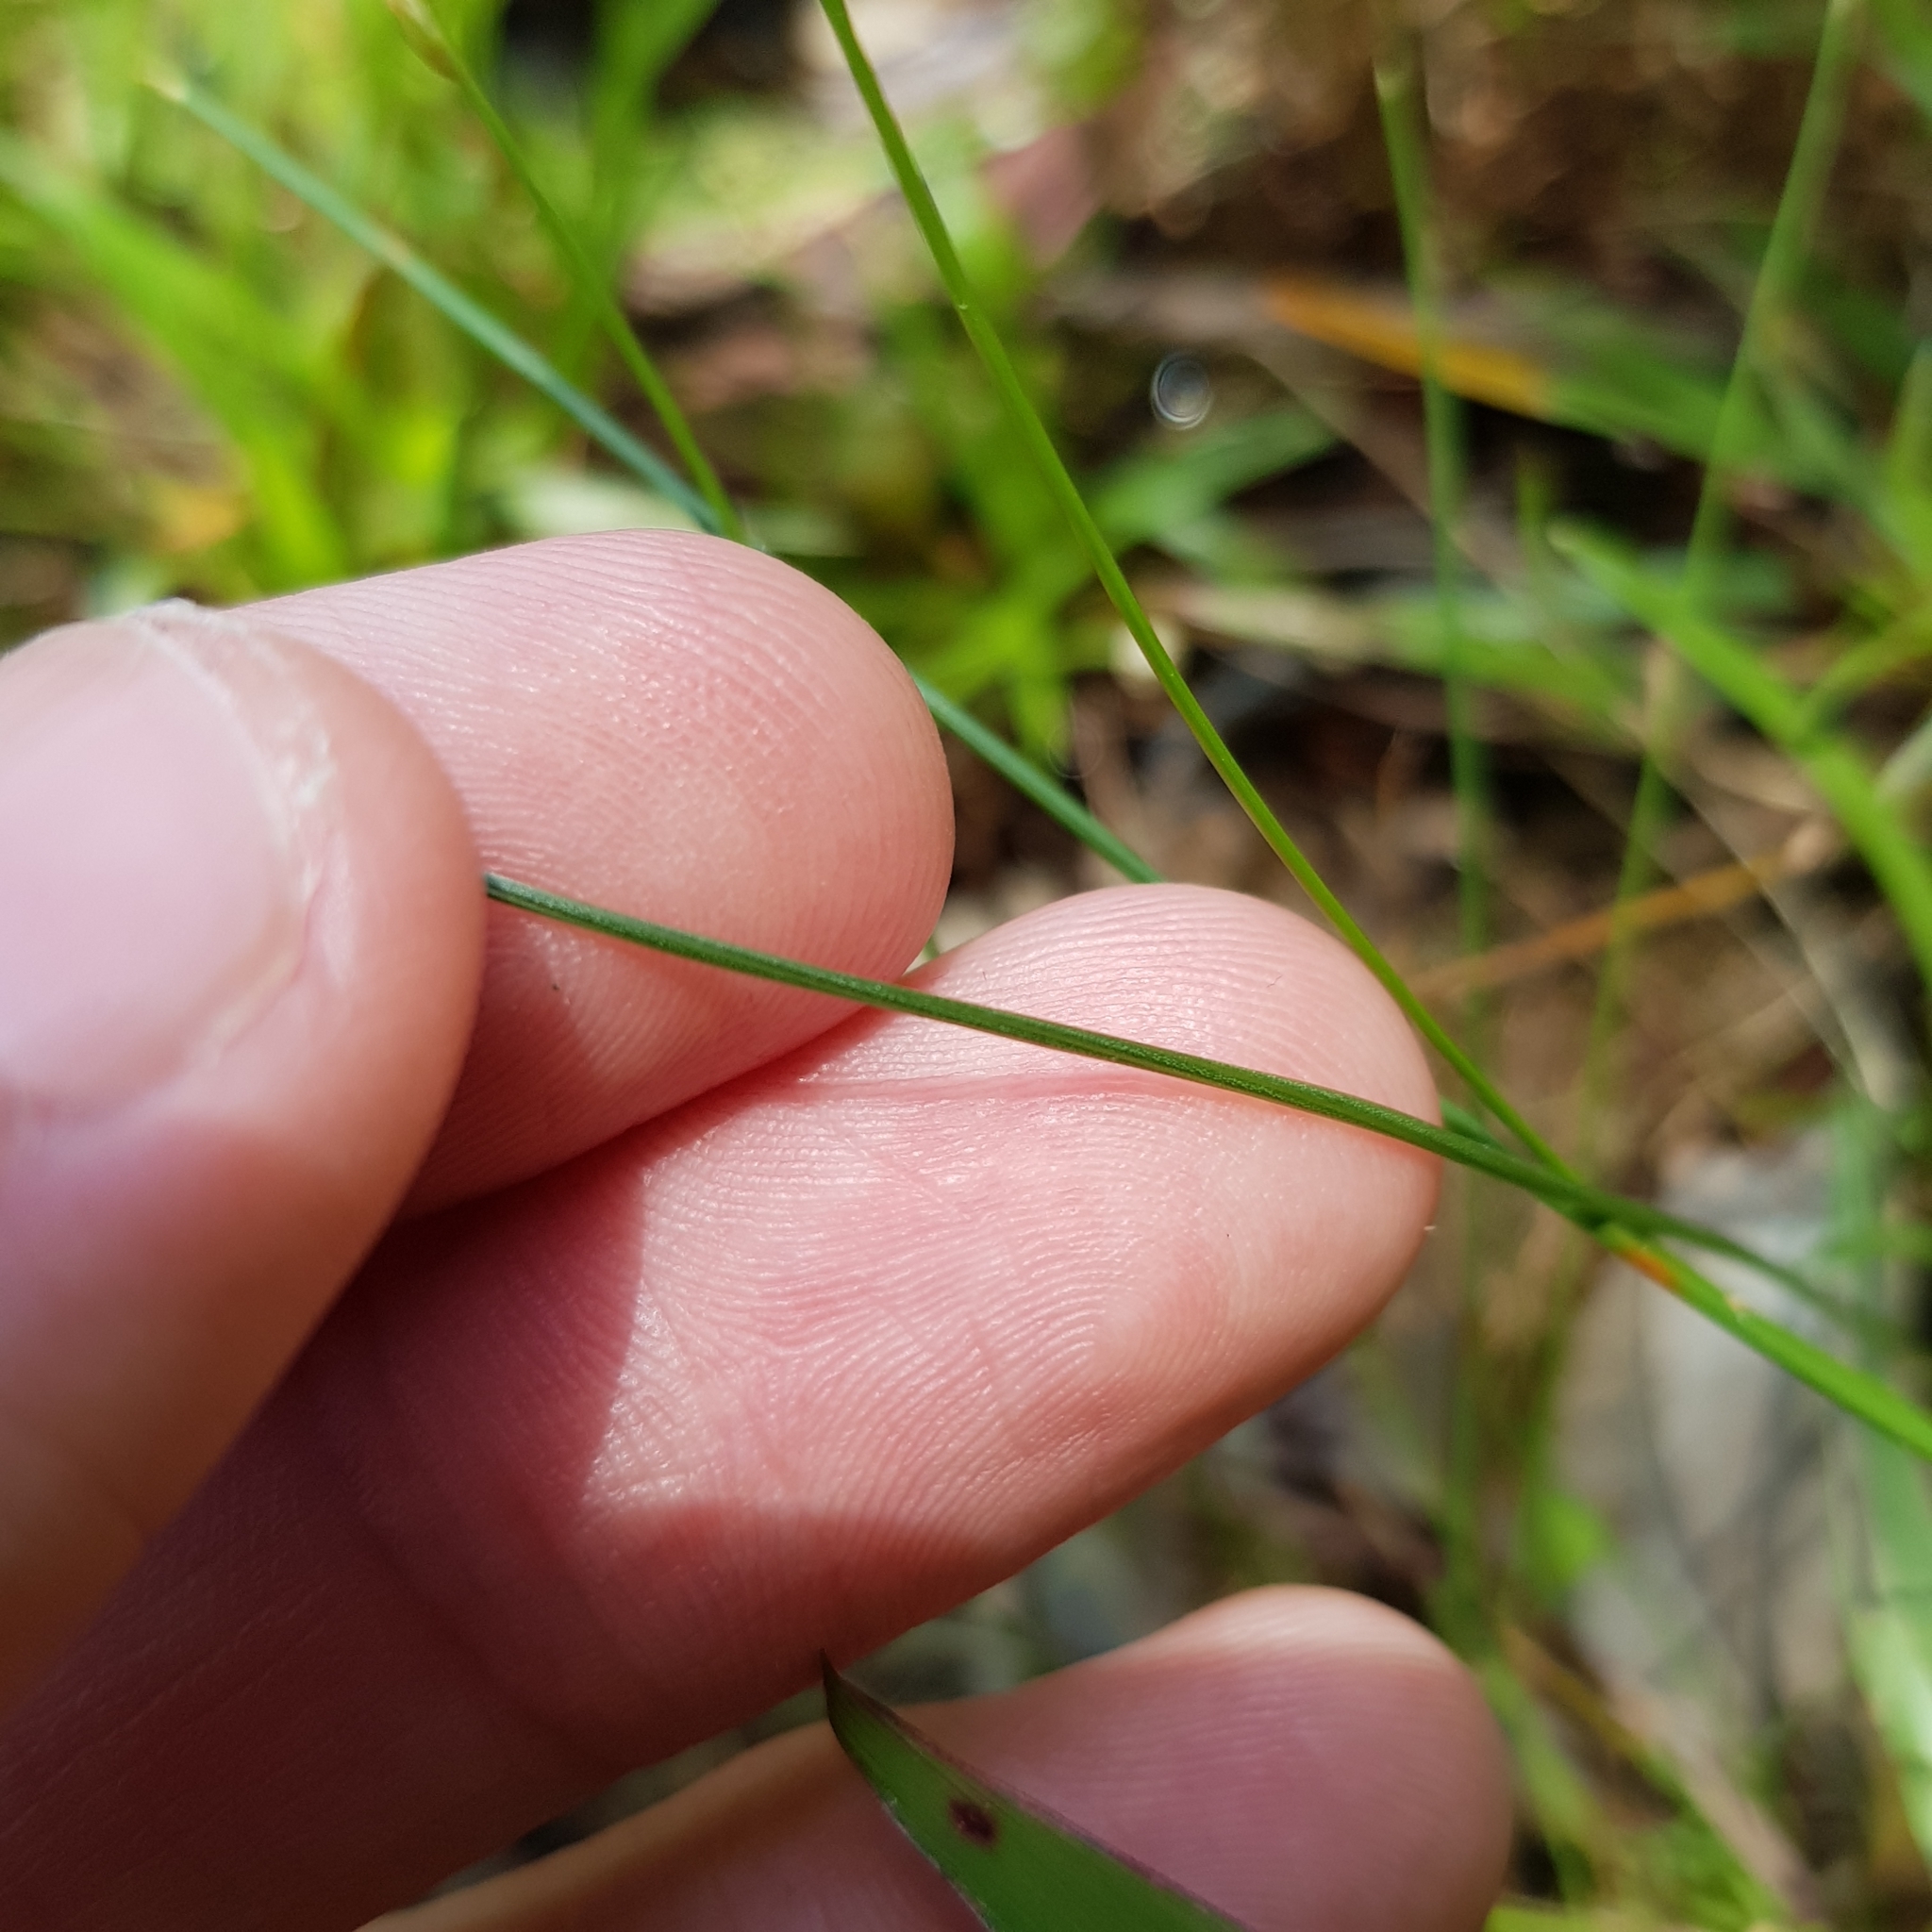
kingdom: Plantae
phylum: Tracheophyta
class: Liliopsida
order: Poales
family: Eriocaulaceae
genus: Eriocaulon
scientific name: Eriocaulon willdenovianum
